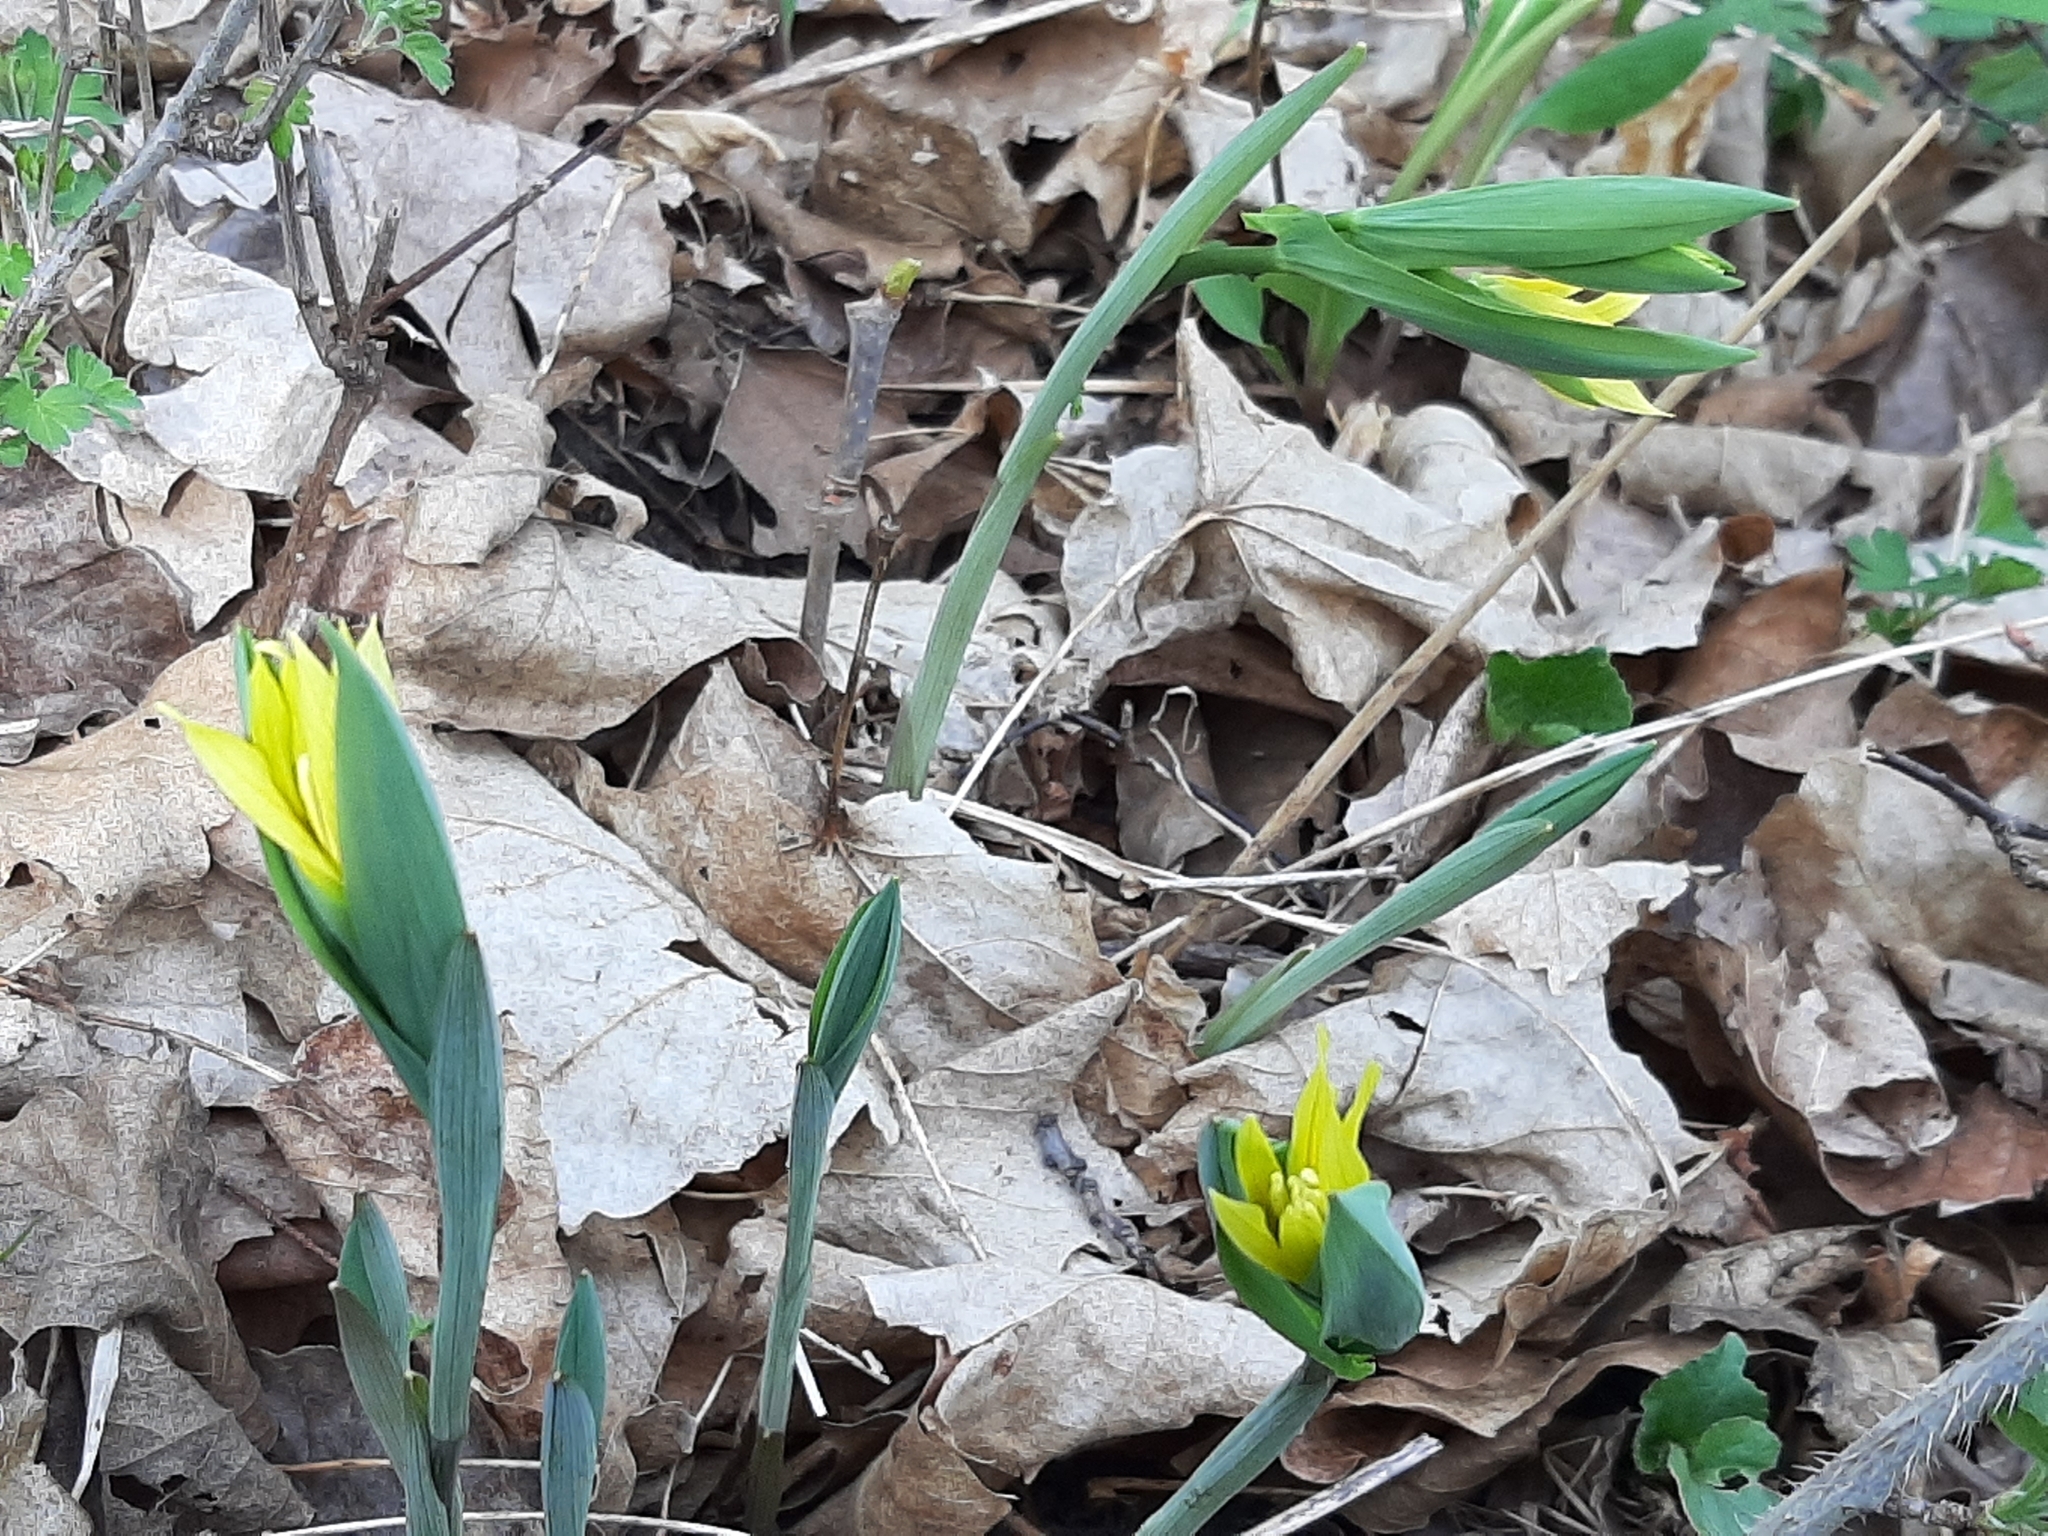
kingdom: Plantae
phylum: Tracheophyta
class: Liliopsida
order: Liliales
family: Colchicaceae
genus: Uvularia
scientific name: Uvularia grandiflora
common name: Bellwort
